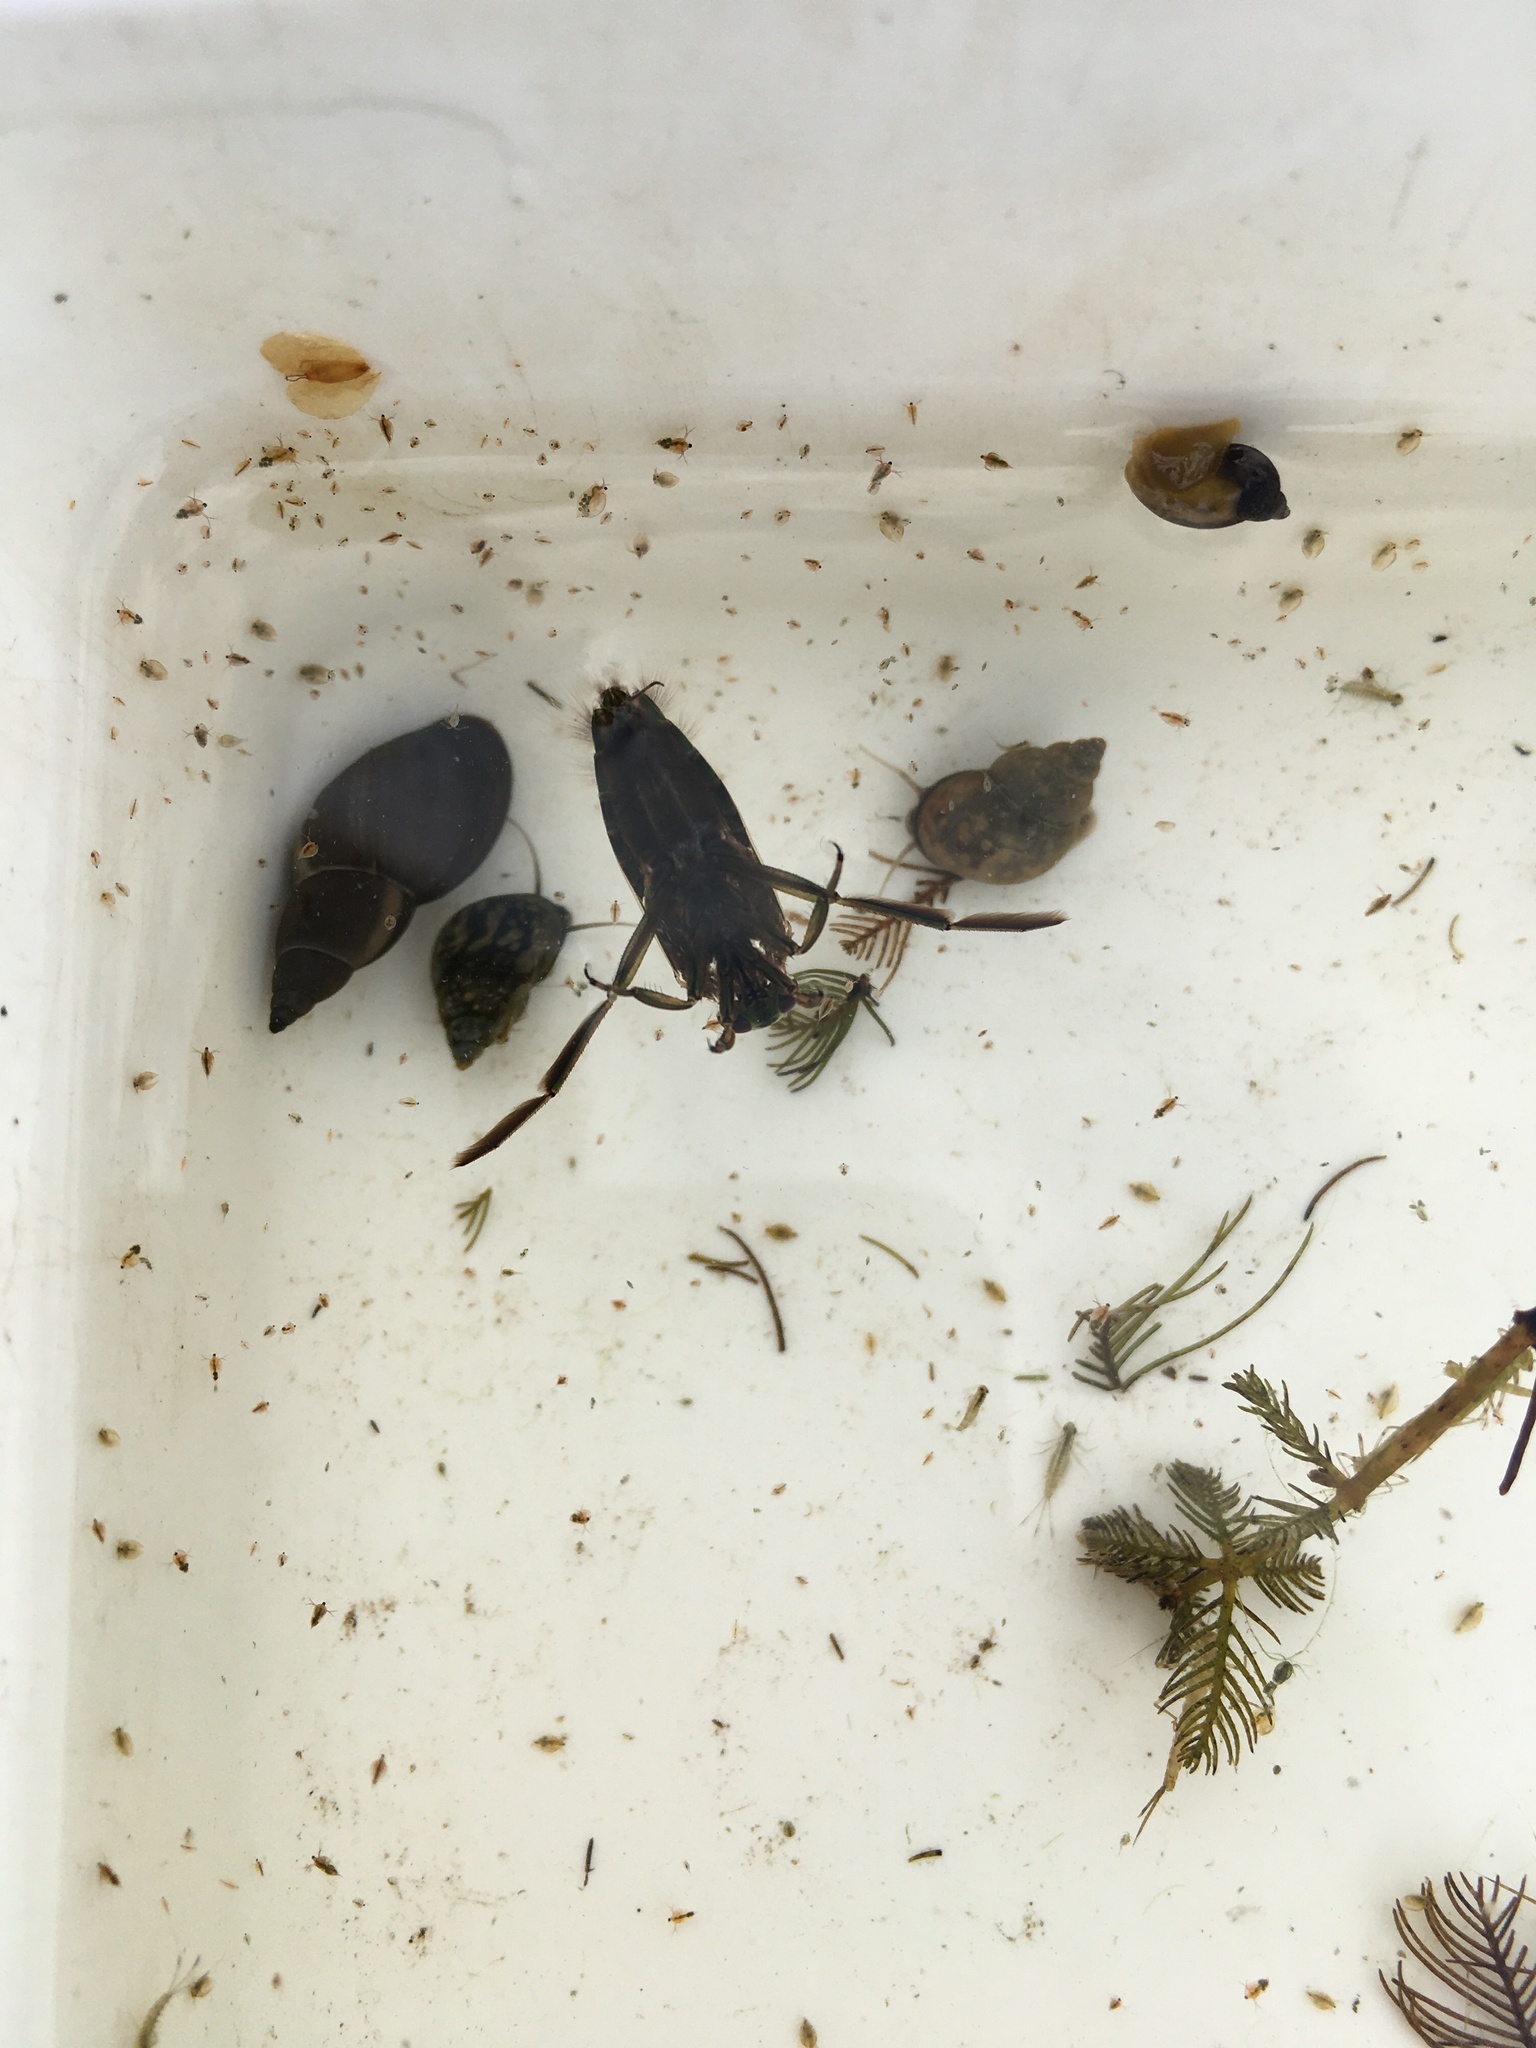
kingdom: Animalia
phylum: Arthropoda
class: Insecta
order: Hemiptera
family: Notonectidae
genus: Notonecta
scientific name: Notonecta
